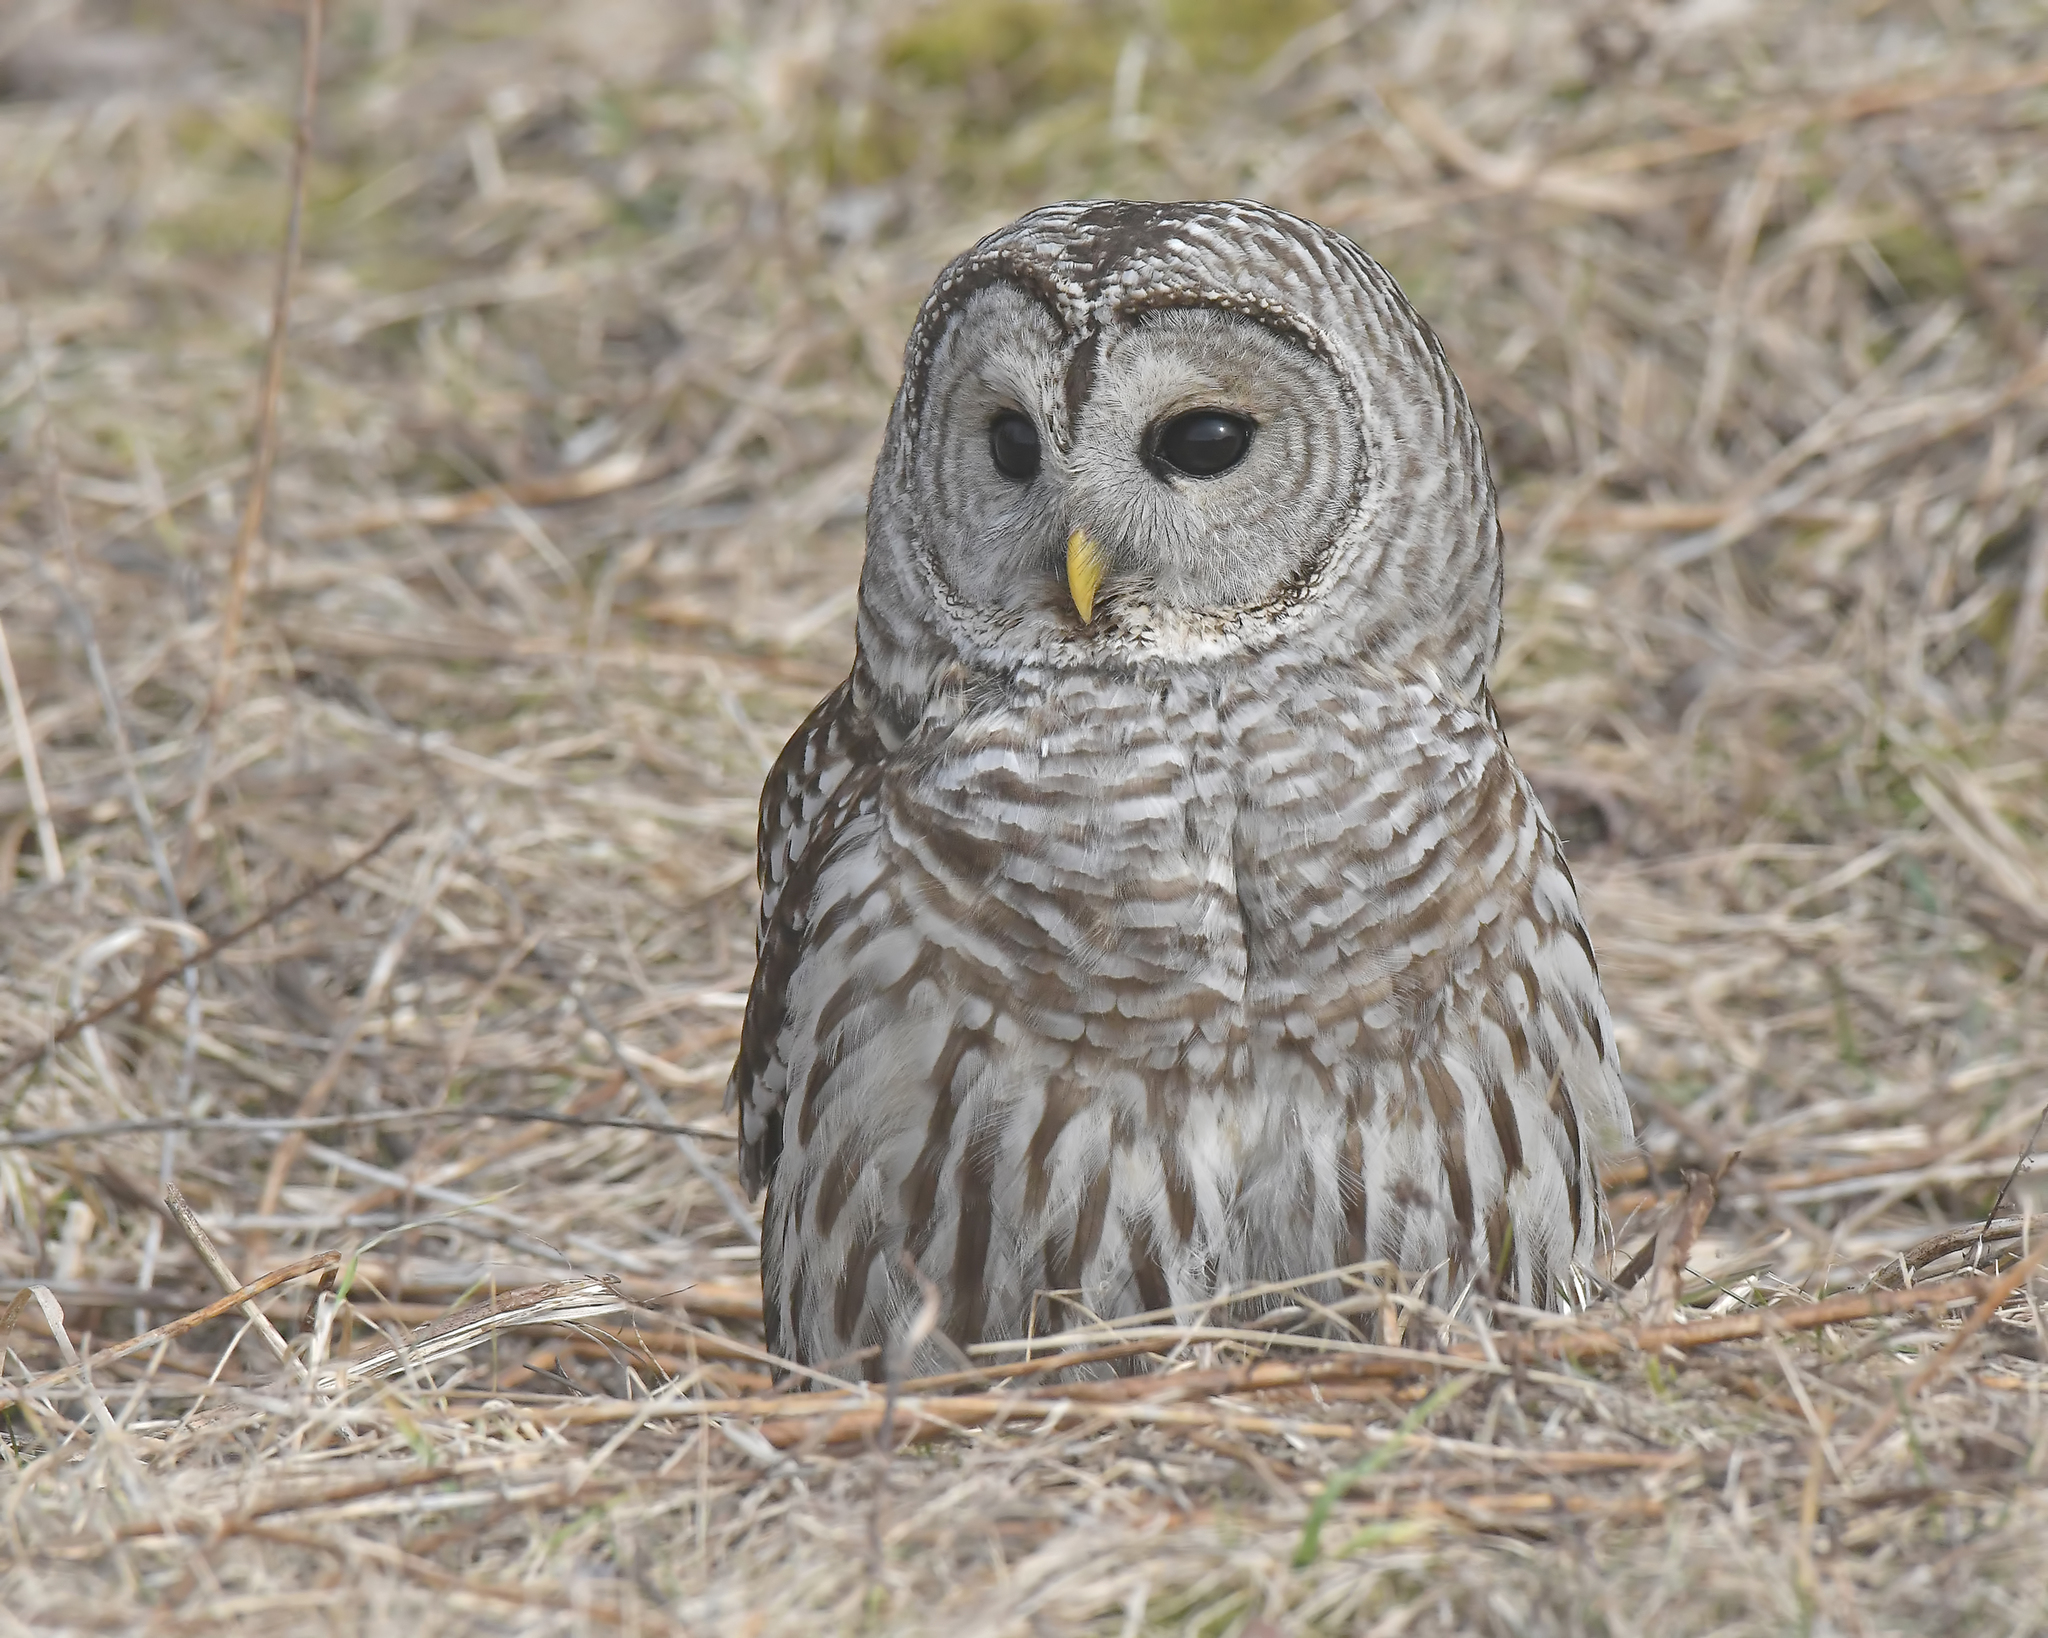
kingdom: Animalia
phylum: Chordata
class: Aves
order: Strigiformes
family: Strigidae
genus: Strix
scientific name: Strix varia
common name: Barred owl
